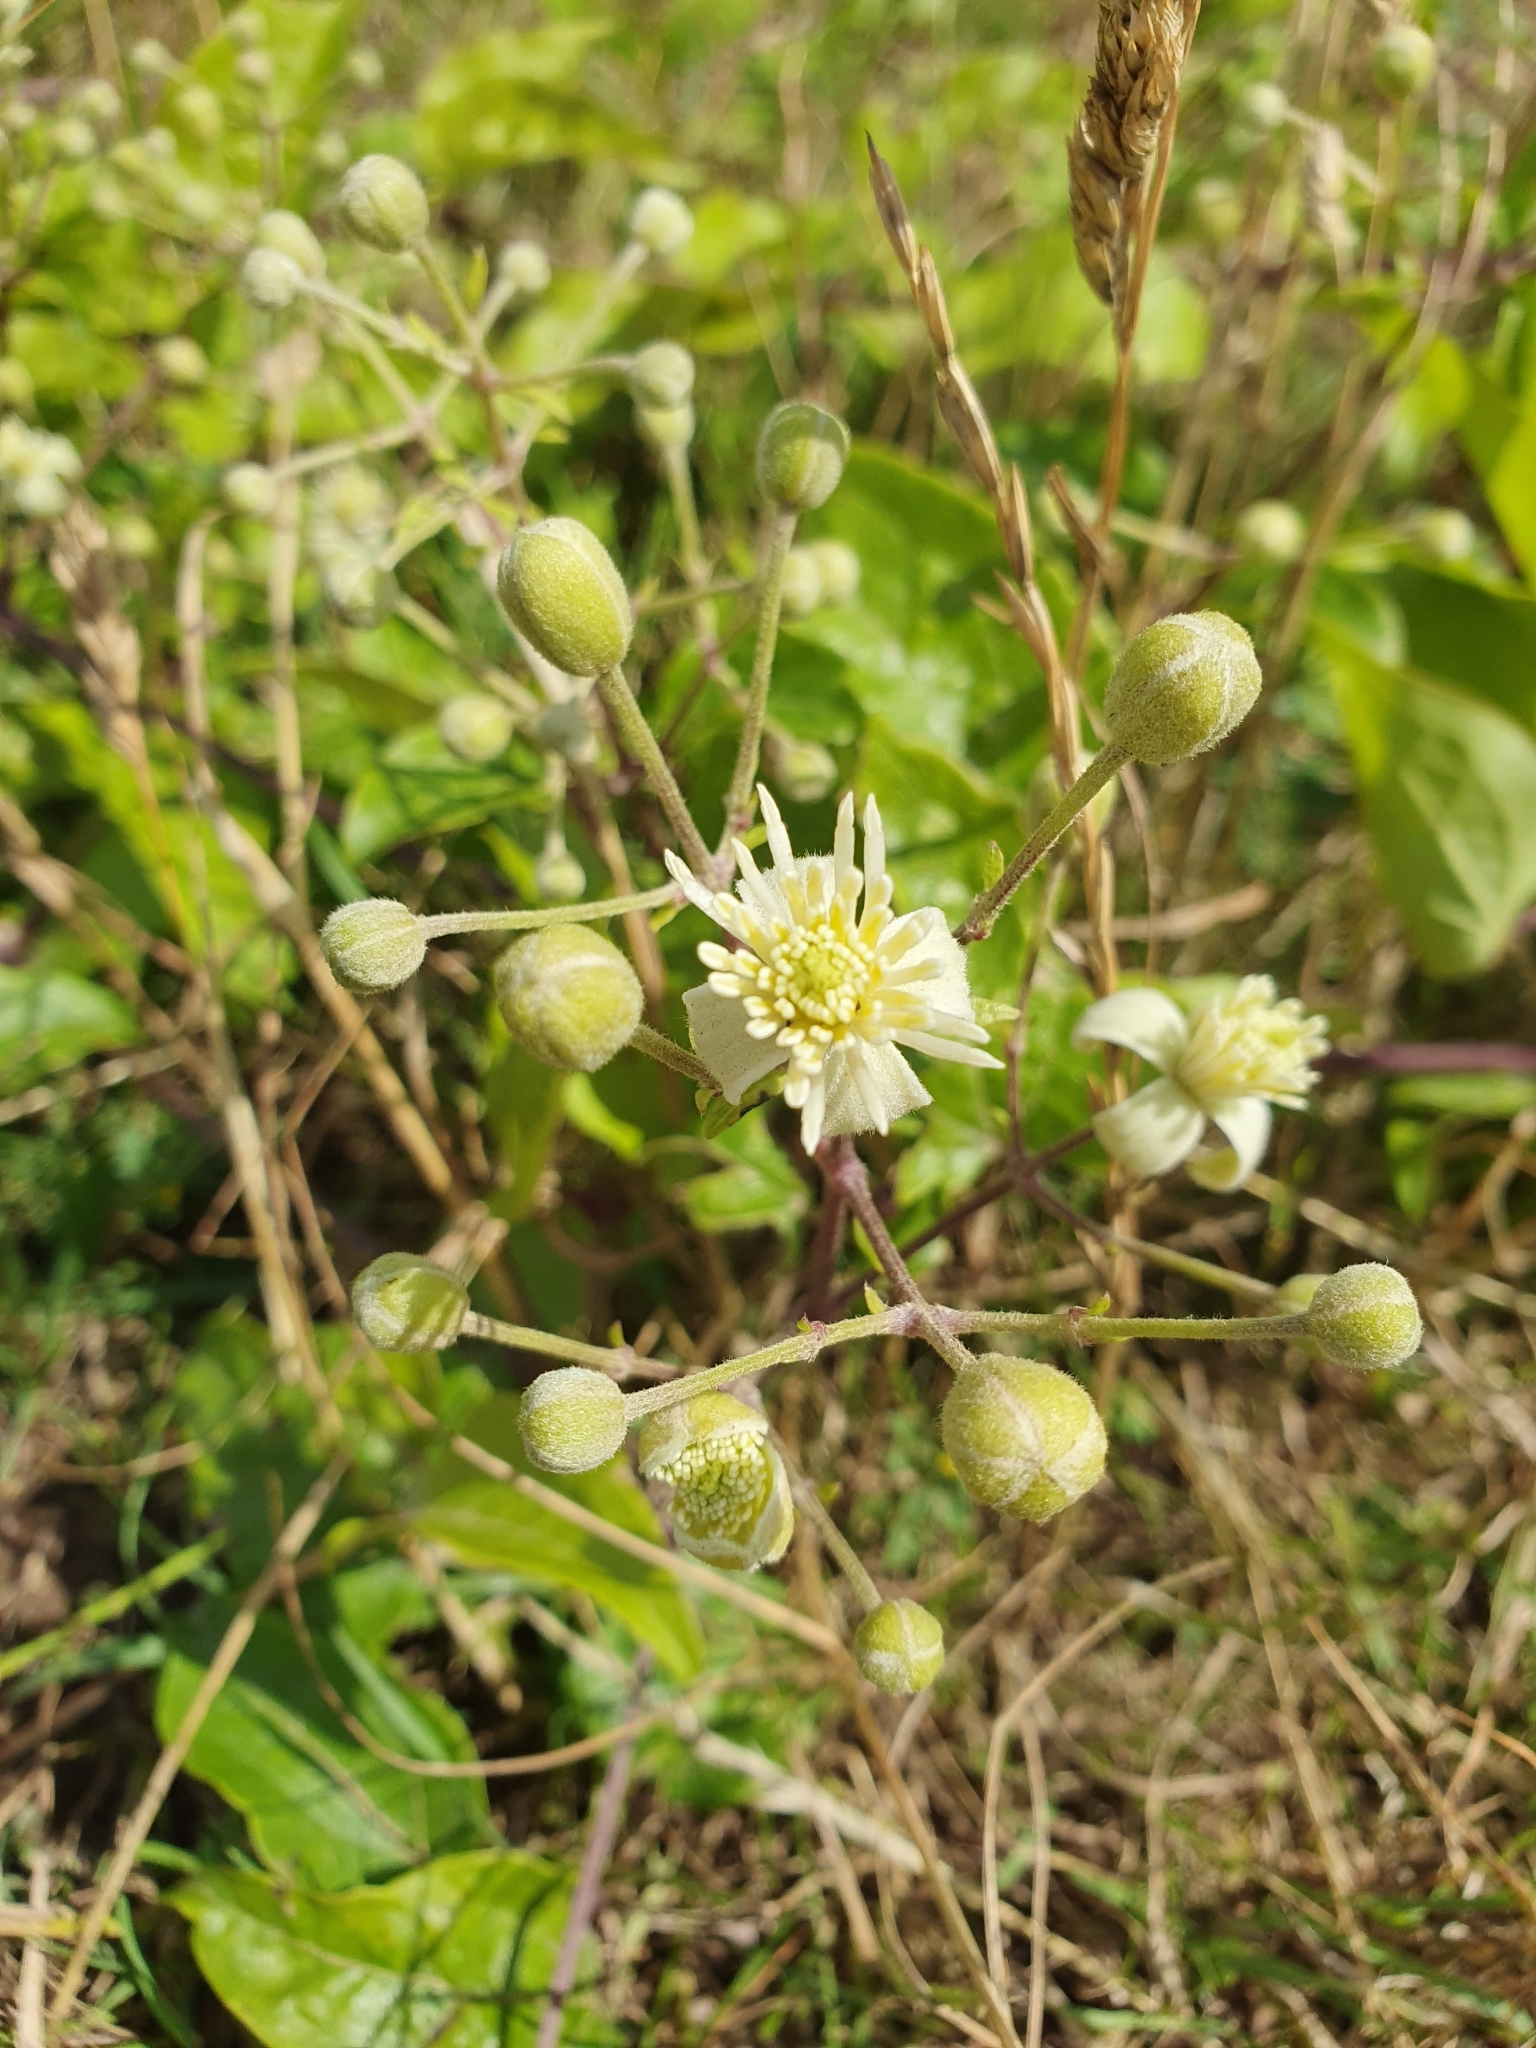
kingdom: Plantae
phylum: Tracheophyta
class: Magnoliopsida
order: Ranunculales
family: Ranunculaceae
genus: Clematis
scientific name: Clematis vitalba
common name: Evergreen clematis
